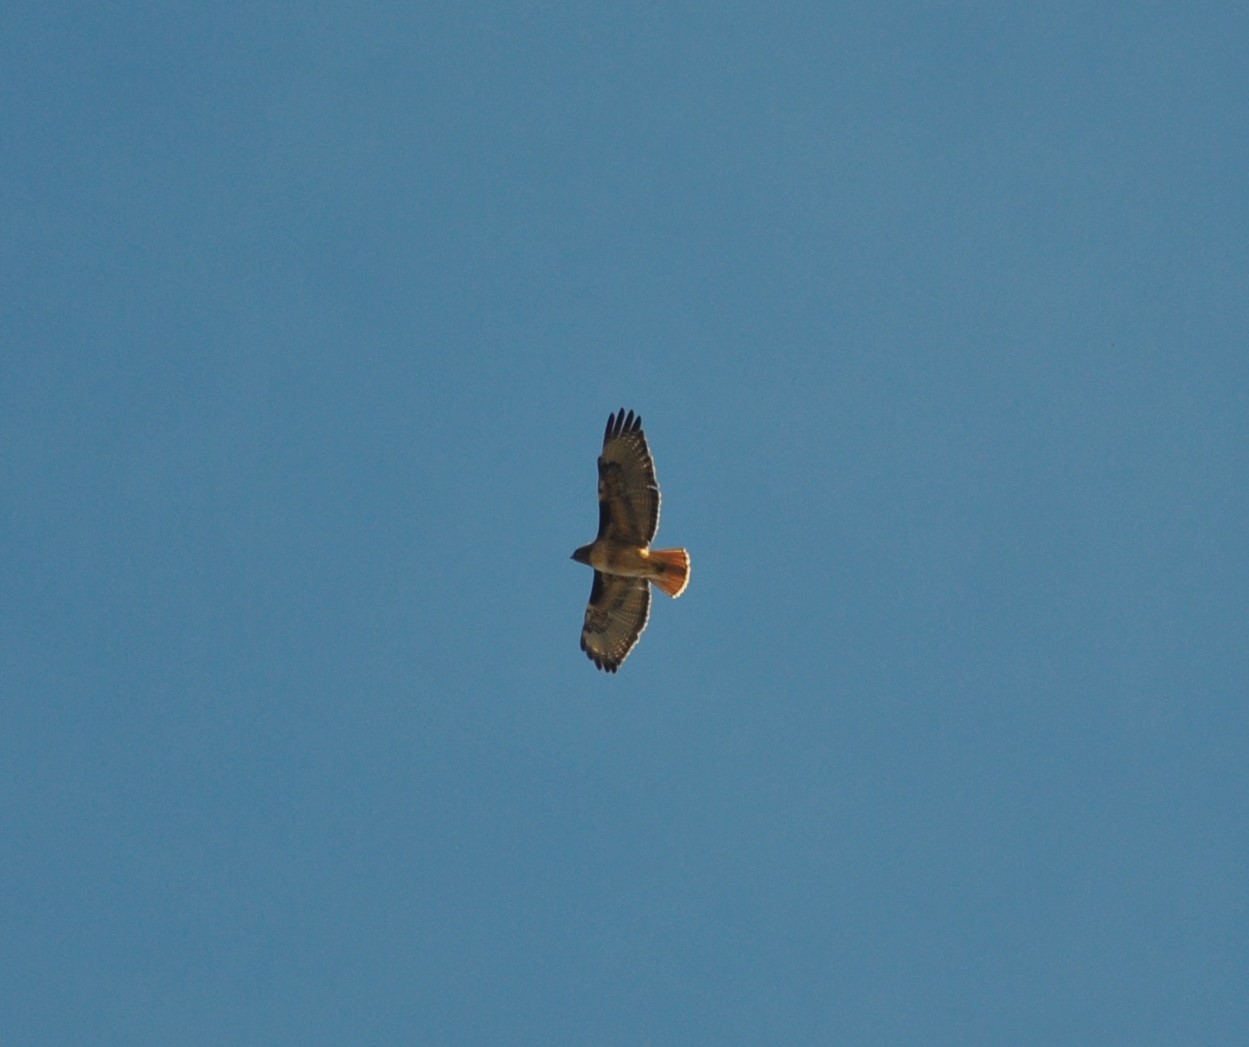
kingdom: Animalia
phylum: Chordata
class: Aves
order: Accipitriformes
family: Accipitridae
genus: Buteo
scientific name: Buteo jamaicensis
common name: Red-tailed hawk
